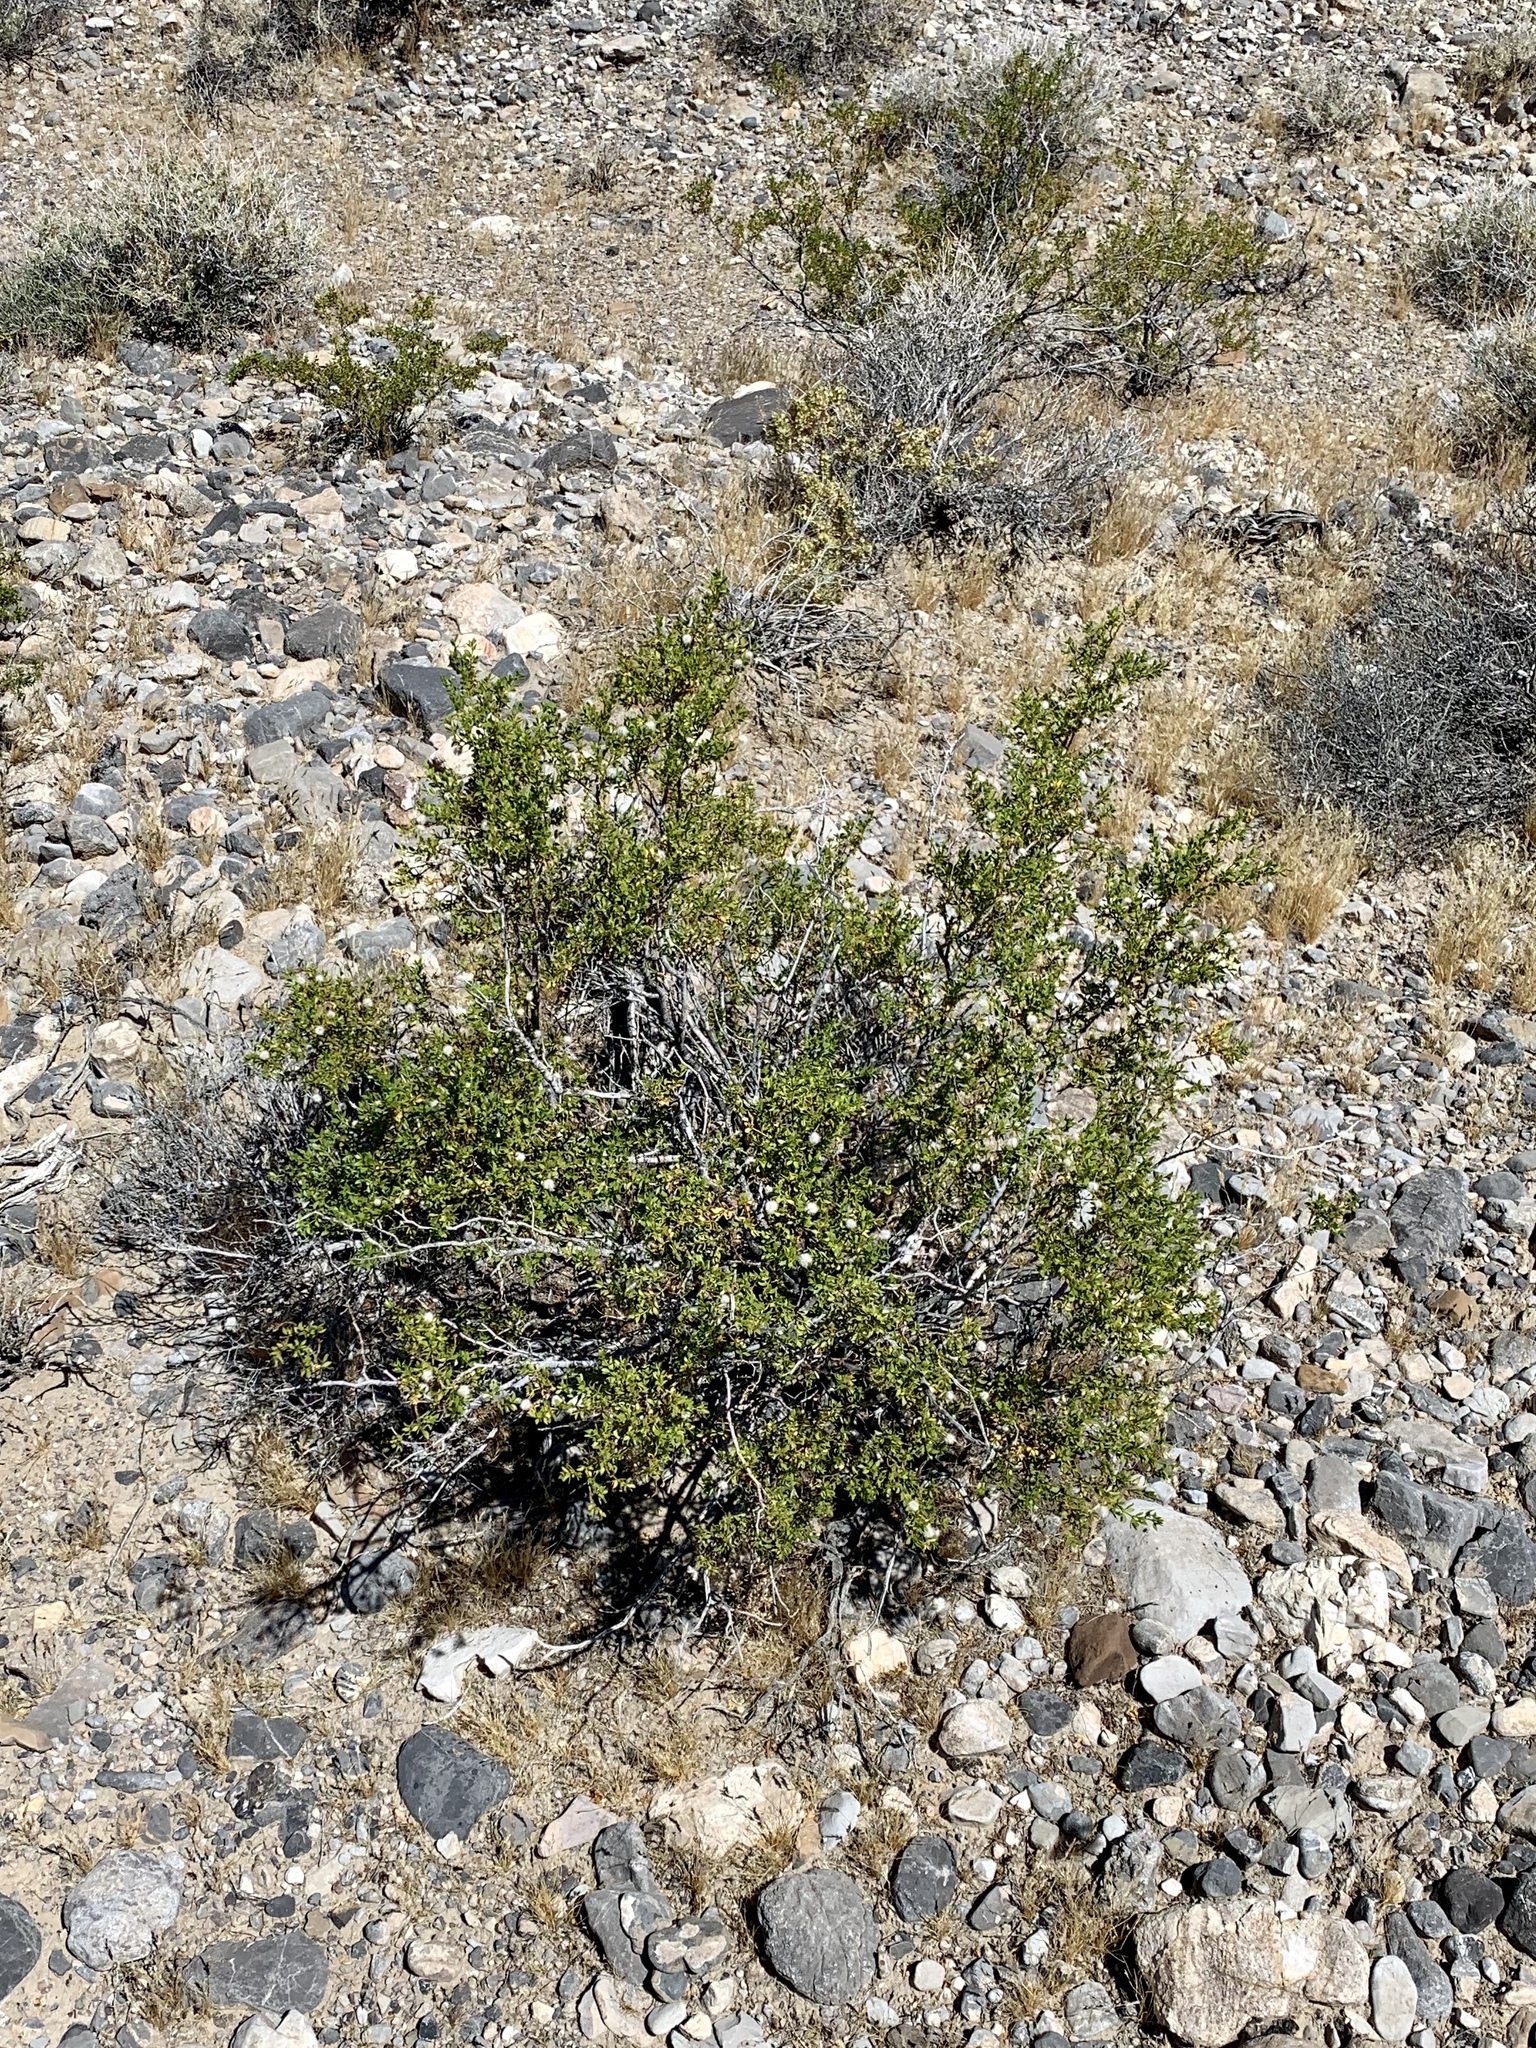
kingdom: Plantae
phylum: Tracheophyta
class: Magnoliopsida
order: Zygophyllales
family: Zygophyllaceae
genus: Larrea
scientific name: Larrea tridentata
